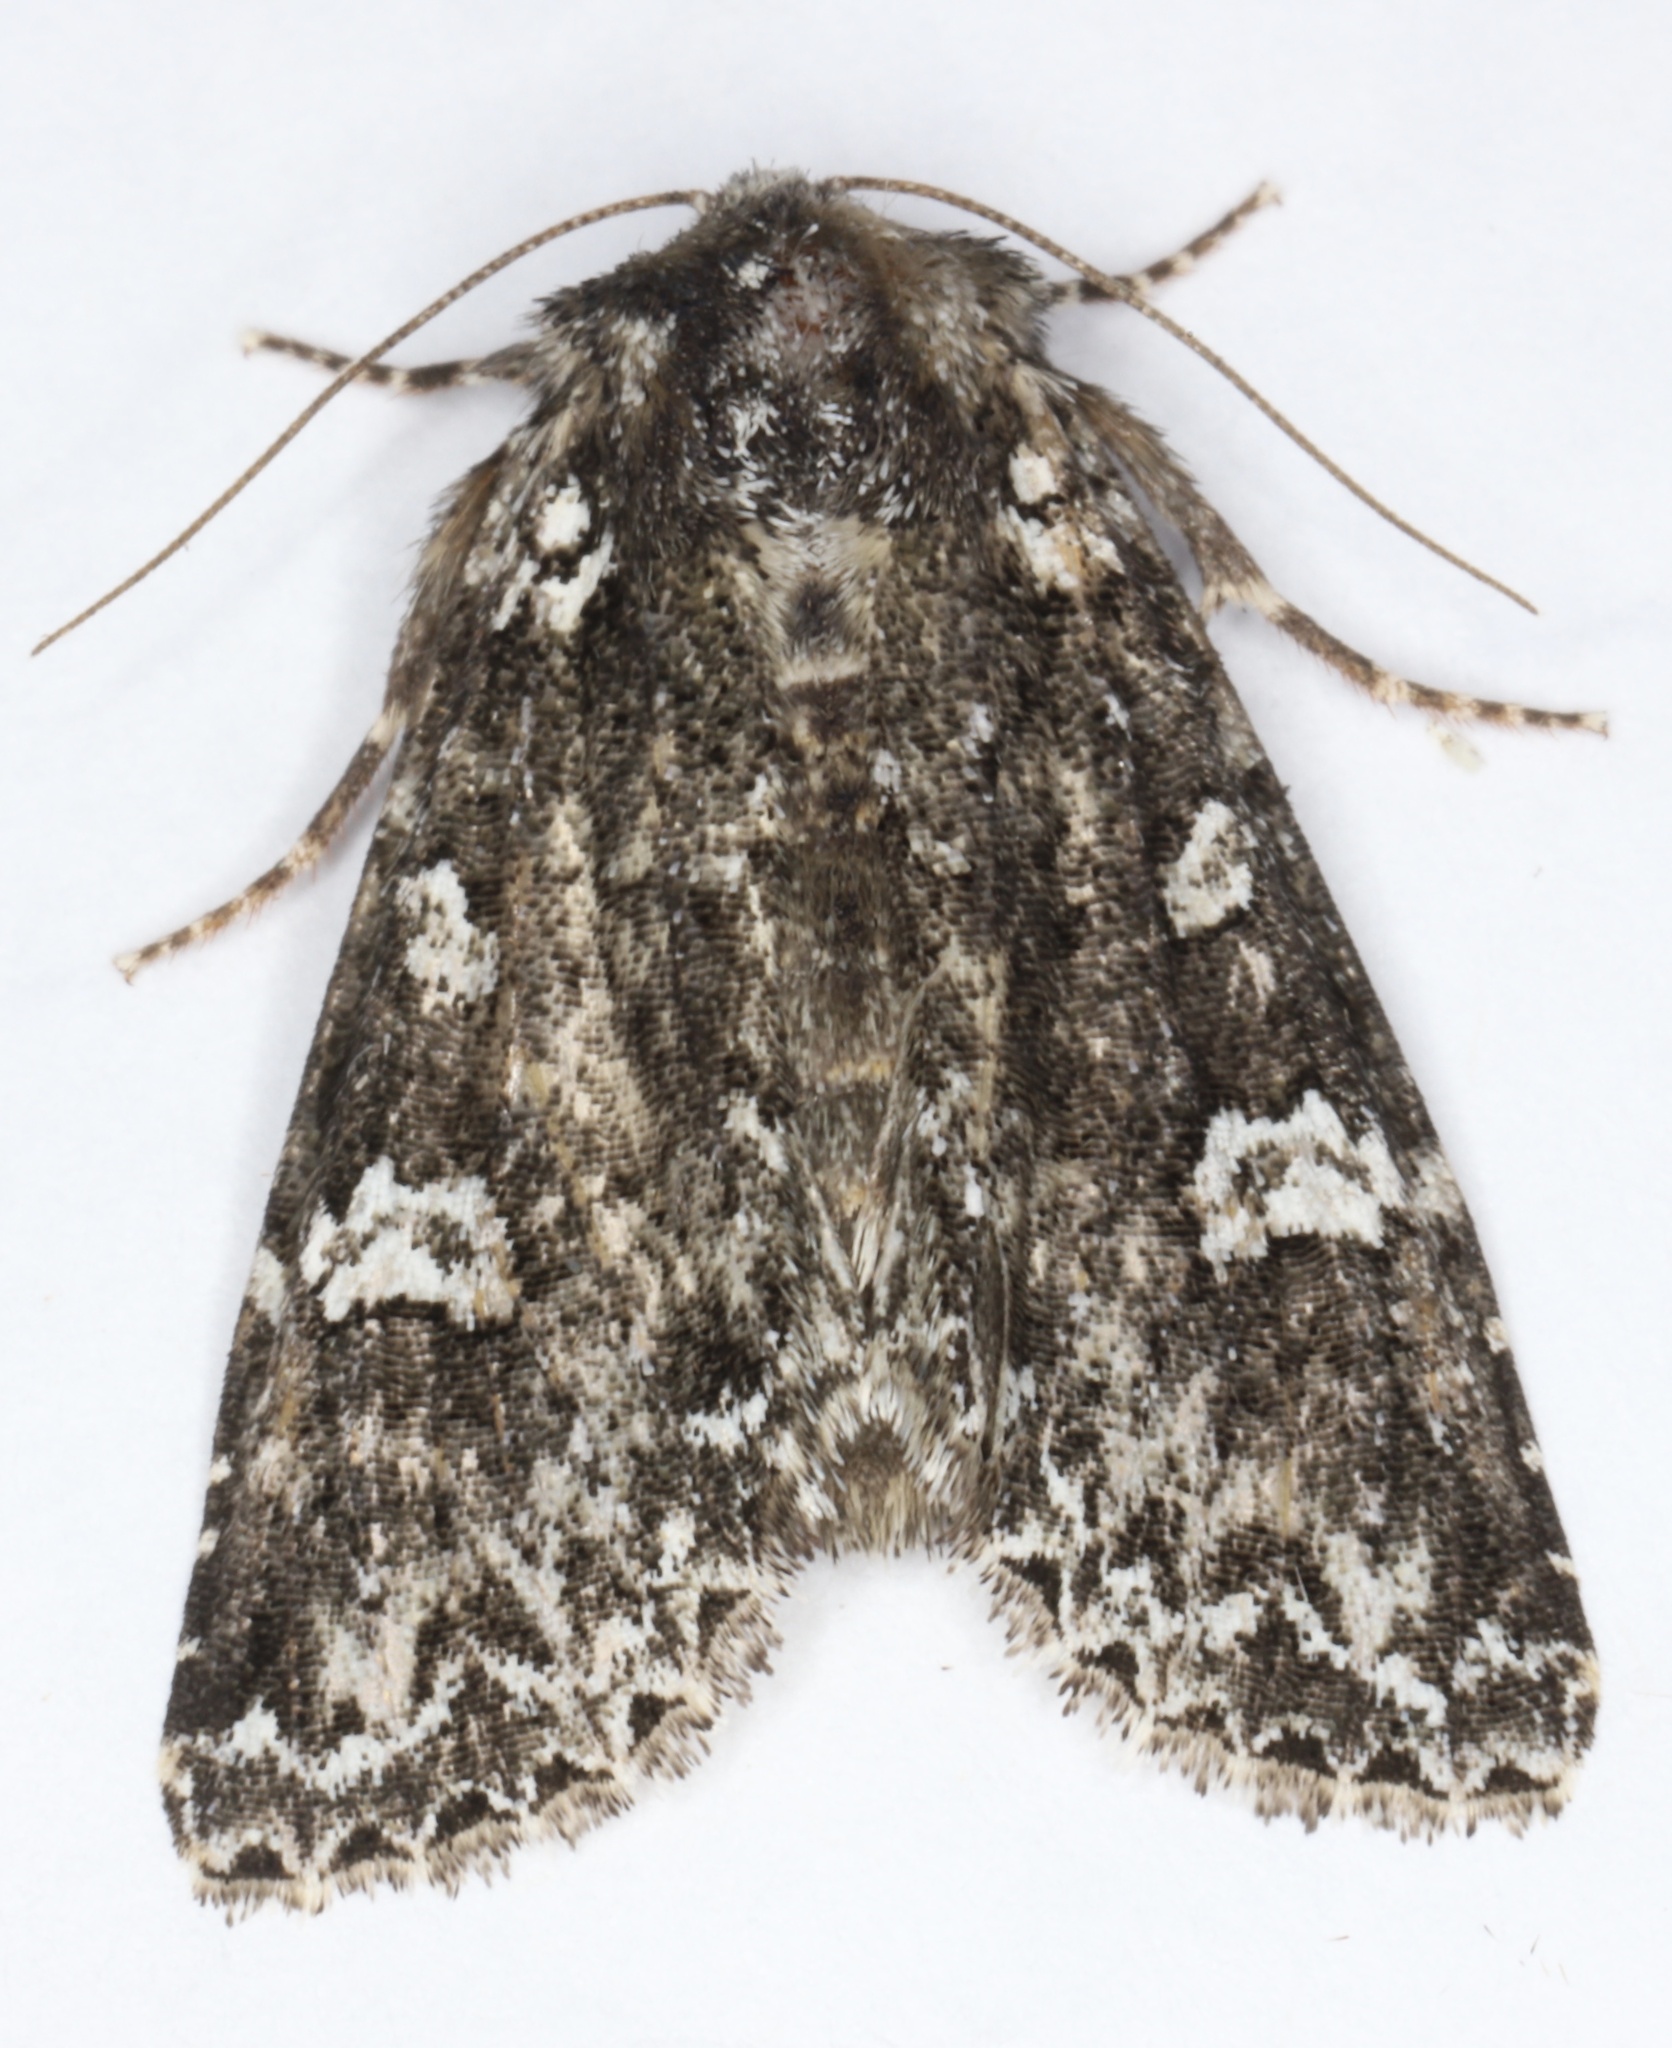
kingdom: Animalia
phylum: Arthropoda
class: Insecta
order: Lepidoptera
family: Noctuidae
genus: Melanchra
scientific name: Melanchra adjuncta
